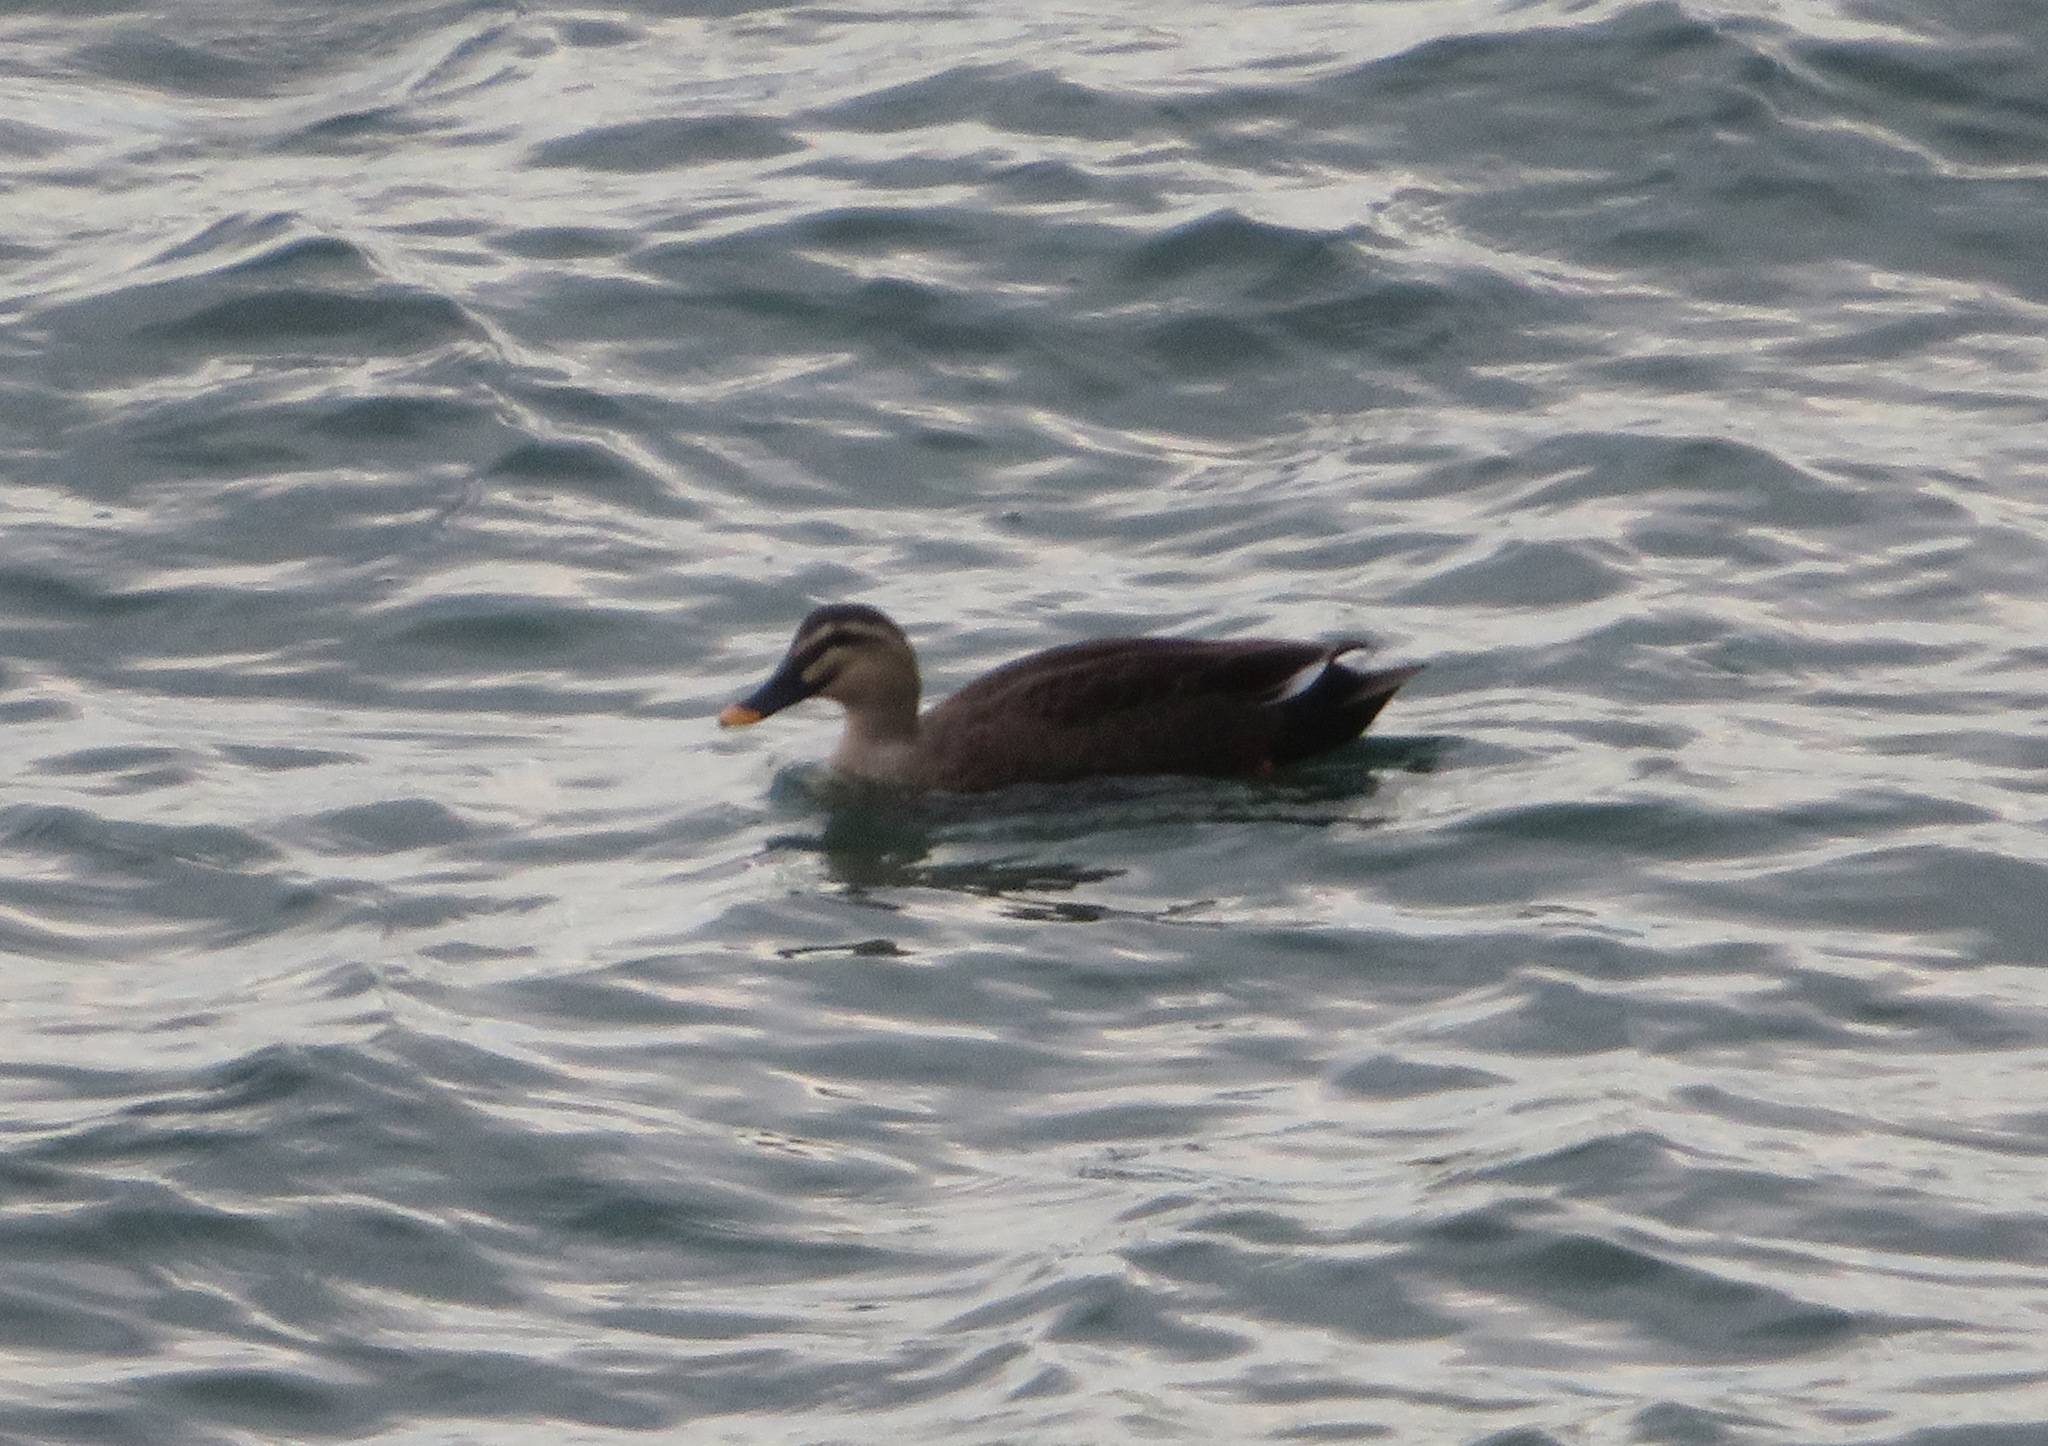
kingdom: Animalia
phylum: Chordata
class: Aves
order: Anseriformes
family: Anatidae
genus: Anas
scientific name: Anas zonorhyncha
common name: Eastern spot-billed duck
